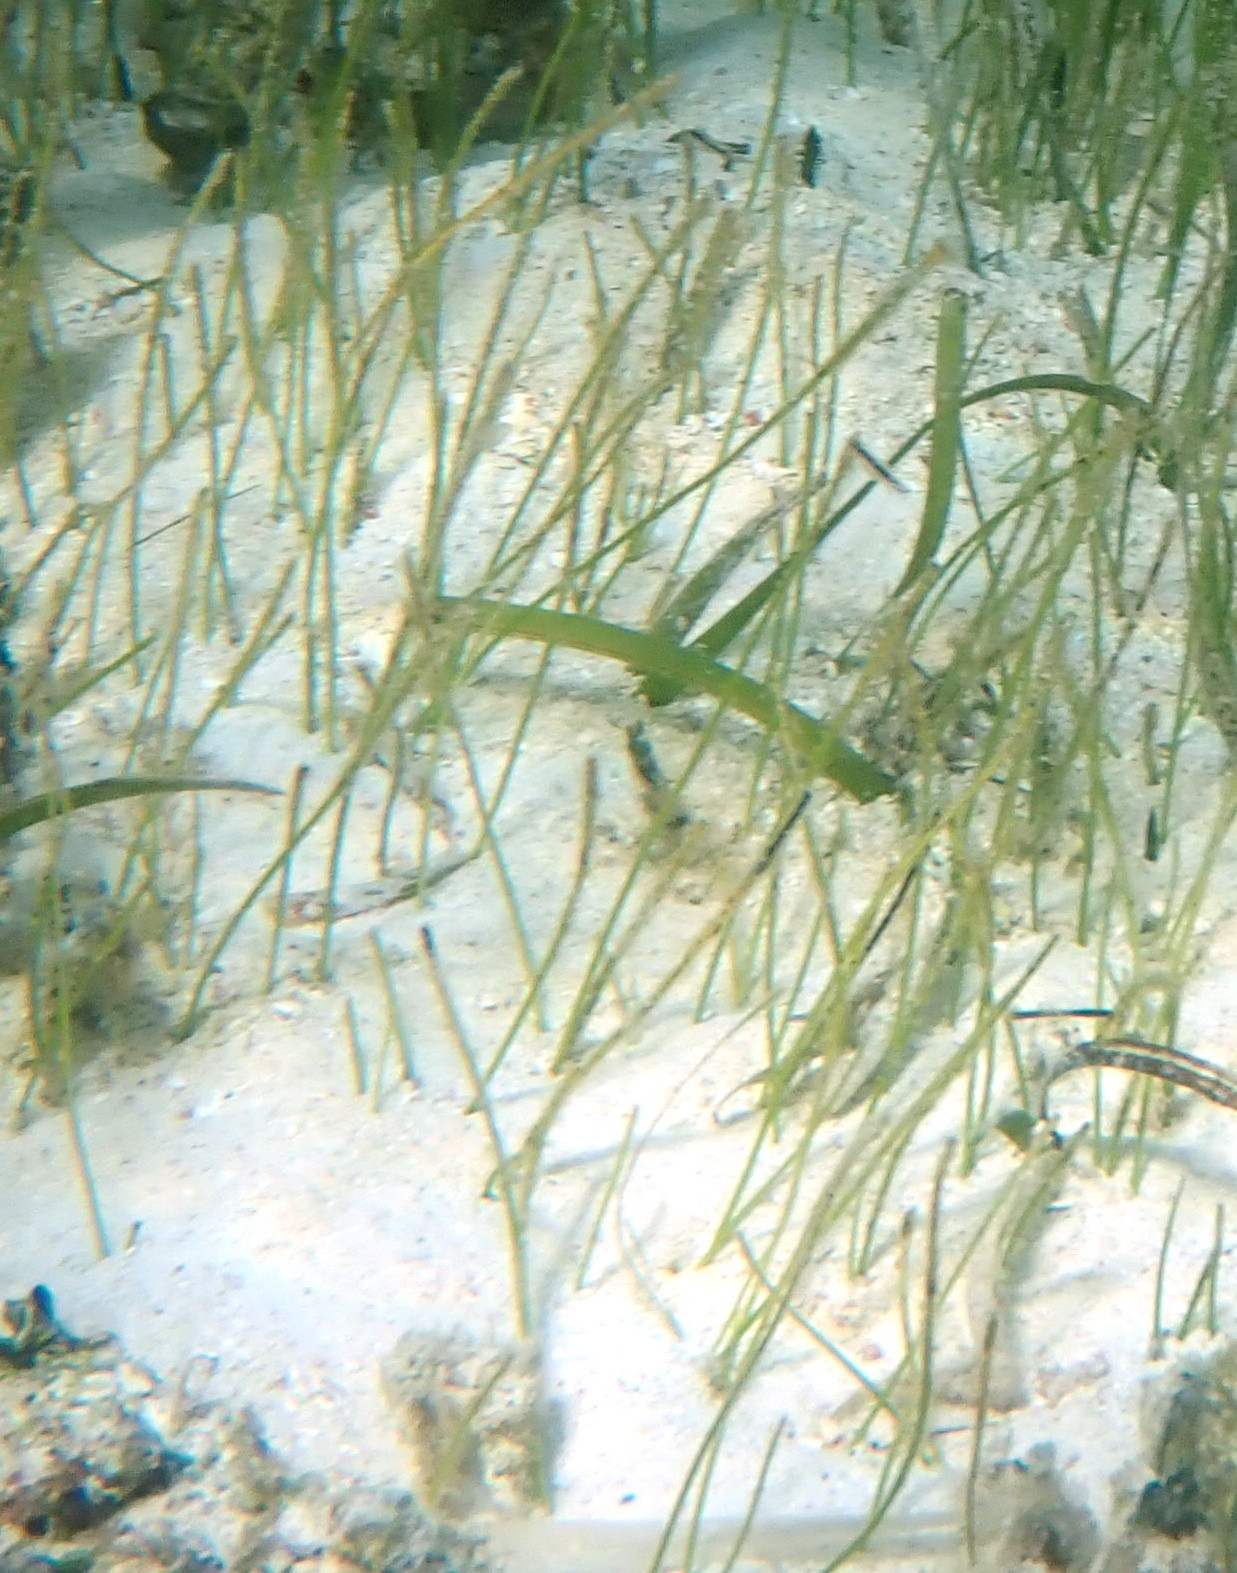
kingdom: Plantae
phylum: Tracheophyta
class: Liliopsida
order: Alismatales
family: Cymodoceaceae
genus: Syringodium
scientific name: Syringodium filiforme
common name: Manatee grass
